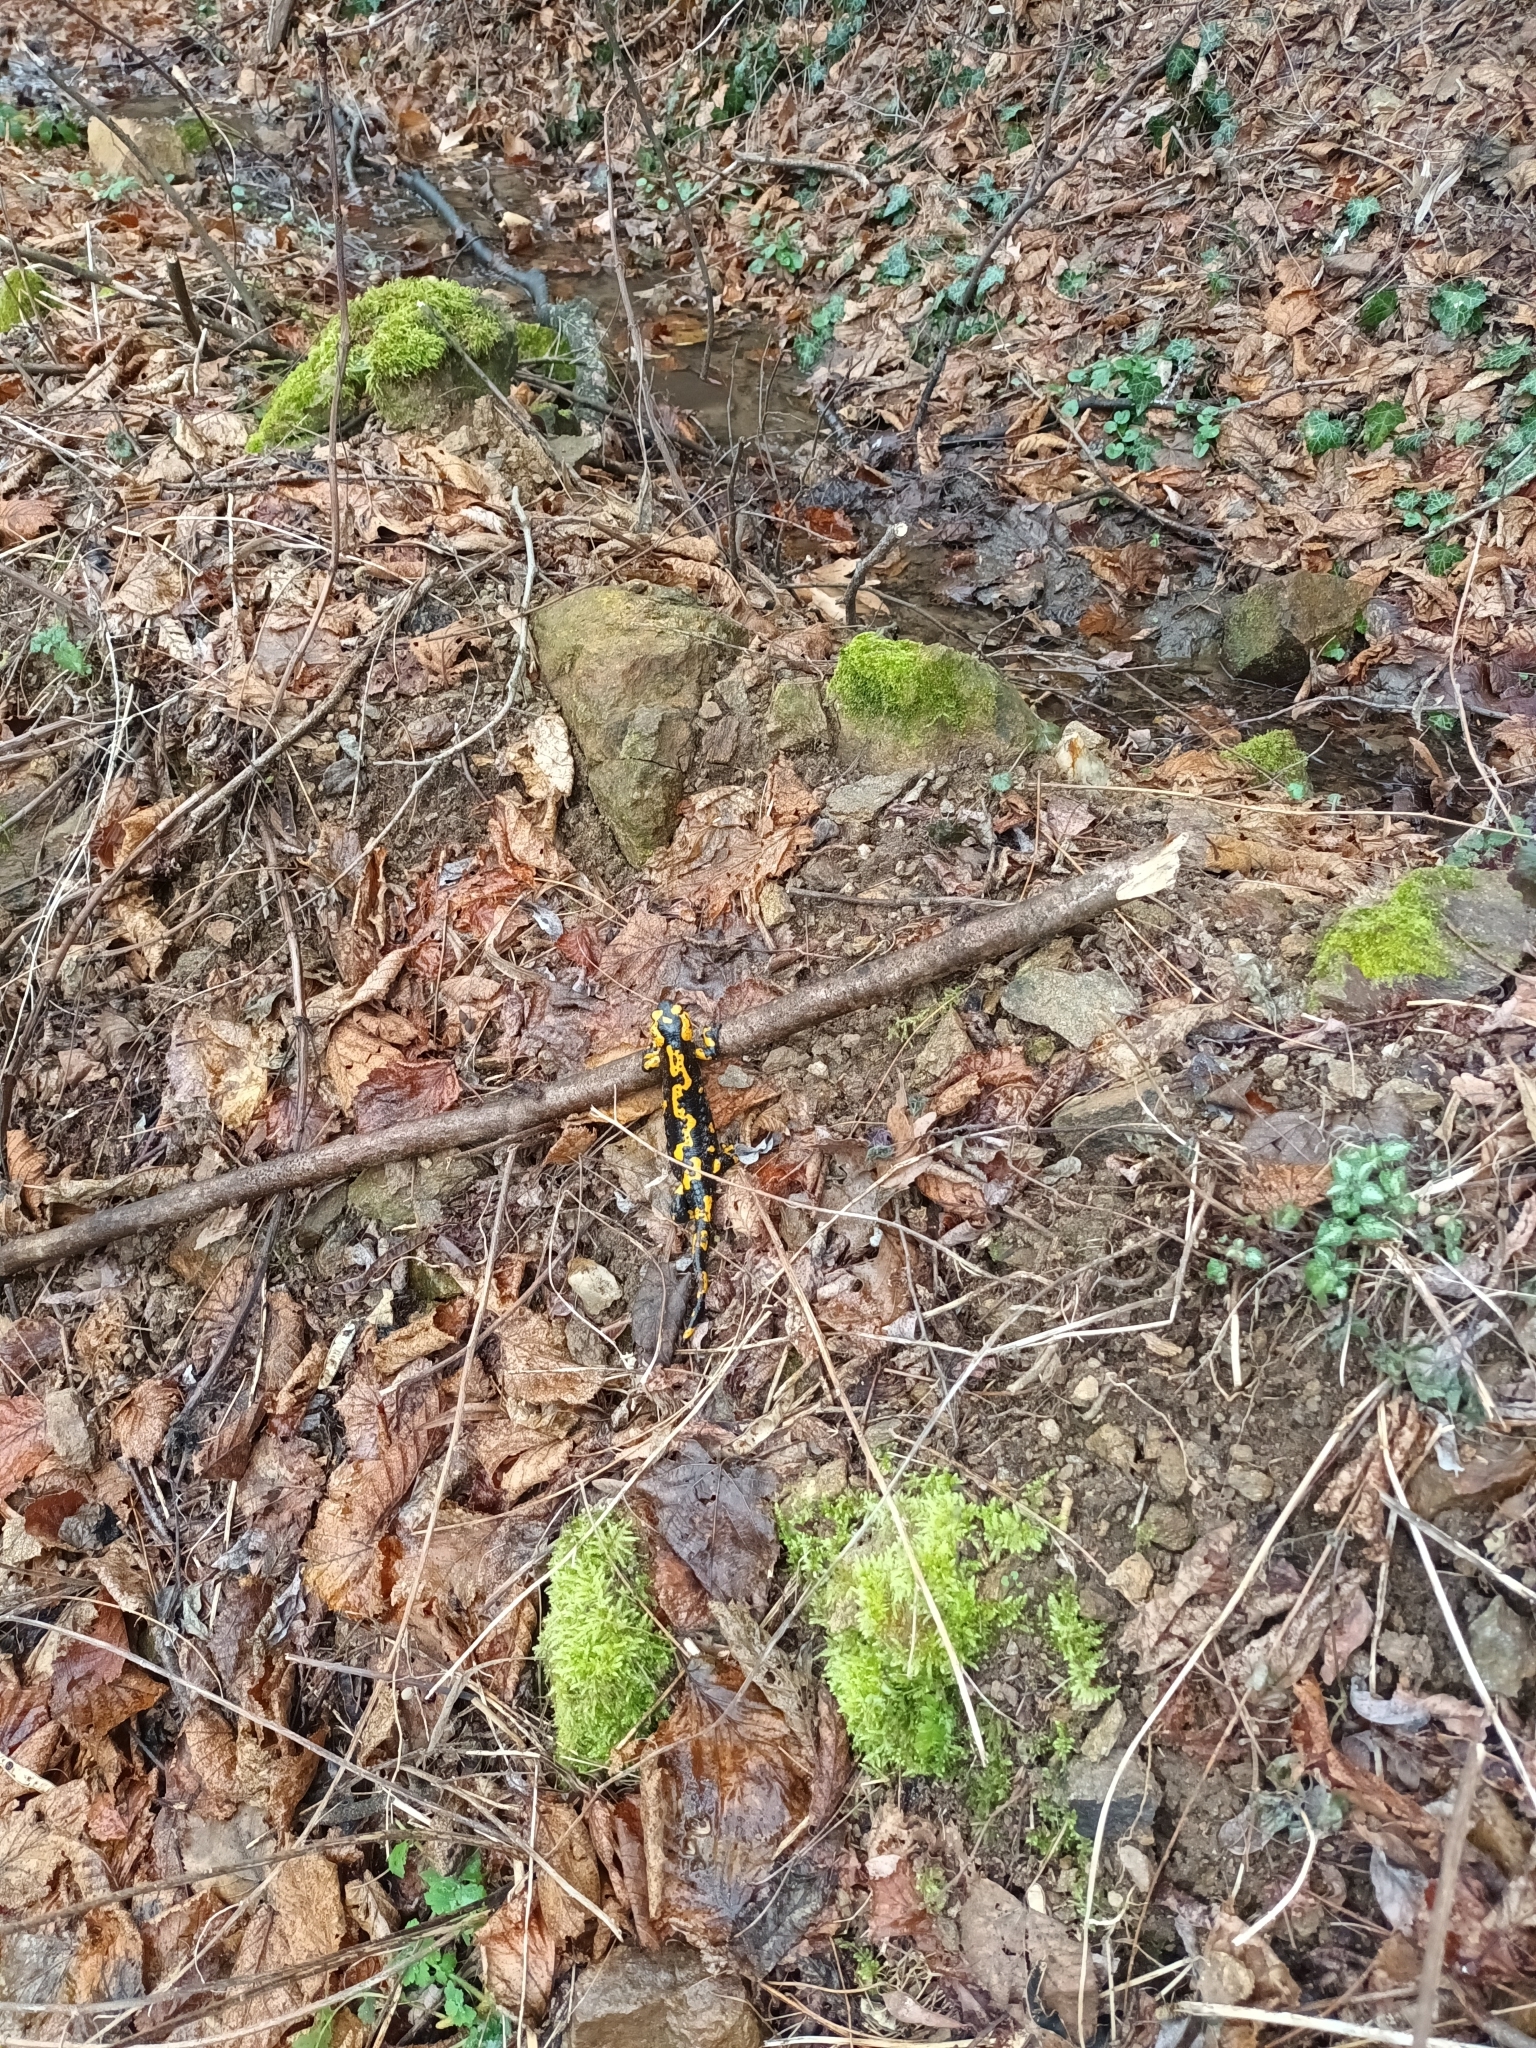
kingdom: Animalia
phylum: Chordata
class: Amphibia
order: Caudata
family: Salamandridae
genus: Salamandra
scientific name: Salamandra salamandra
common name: Fire salamander
